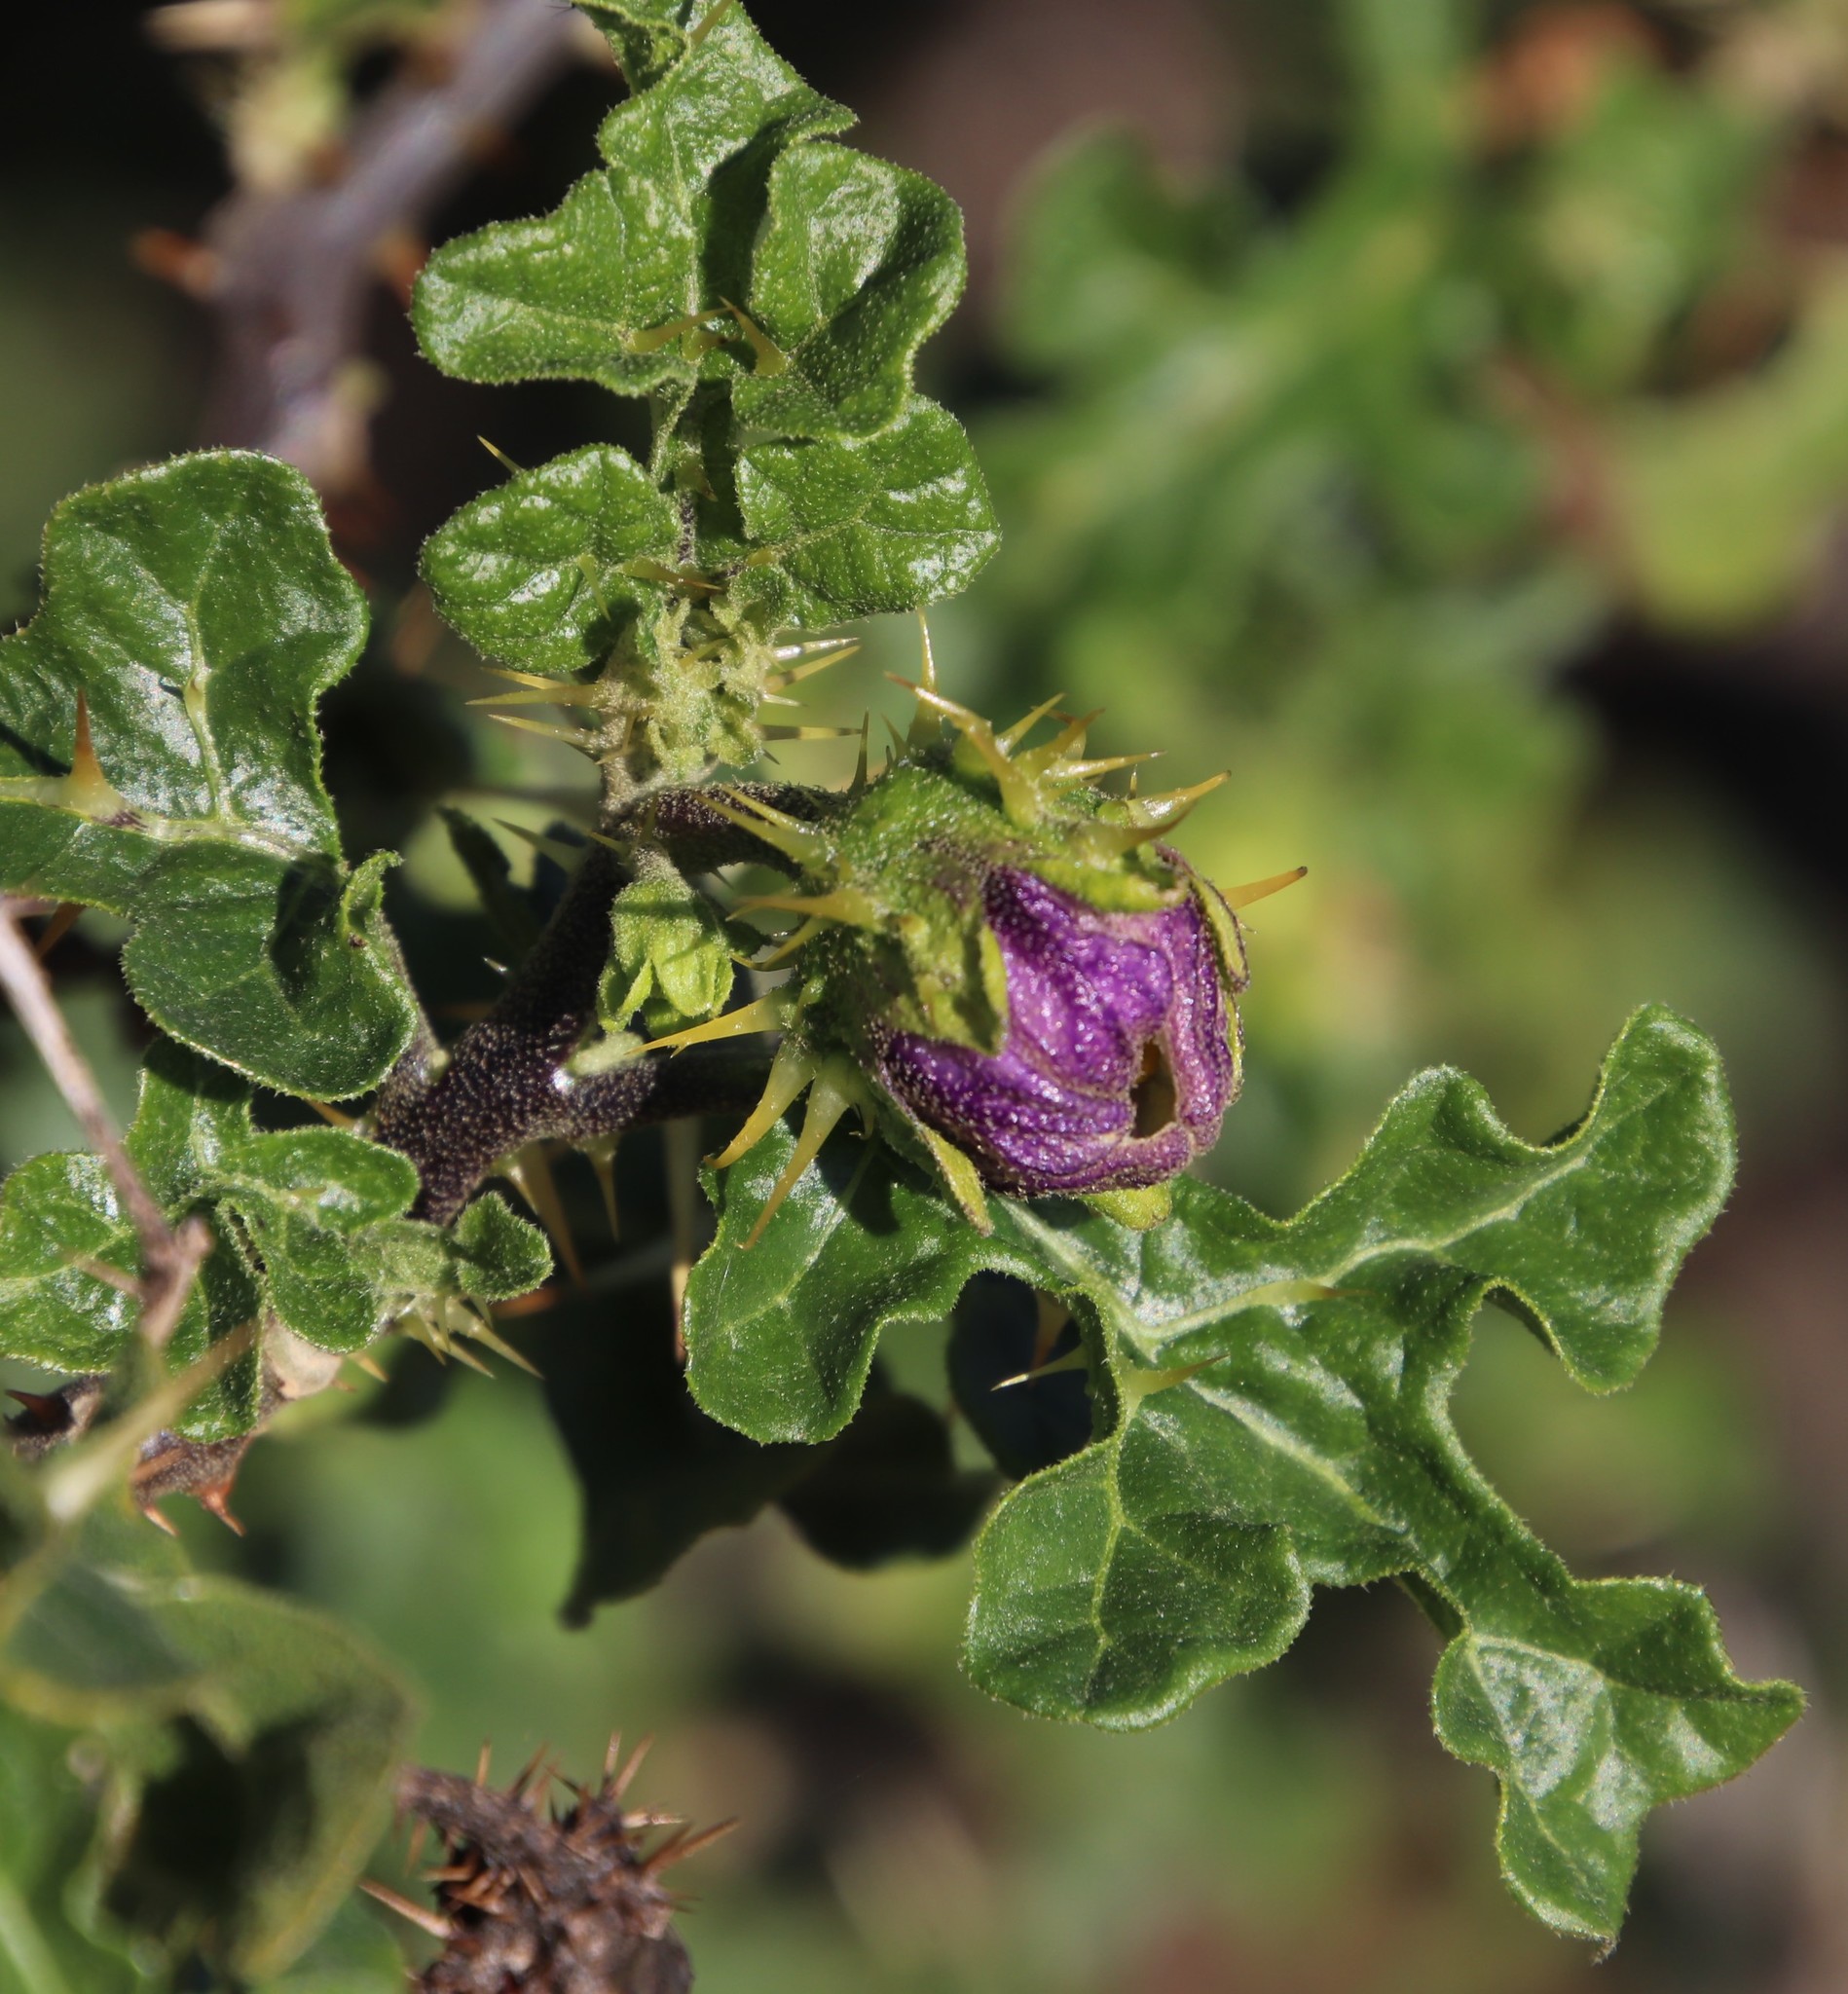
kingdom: Plantae
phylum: Tracheophyta
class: Magnoliopsida
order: Solanales
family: Solanaceae
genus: Solanum
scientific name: Solanum linnaeanum
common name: Nightshade
